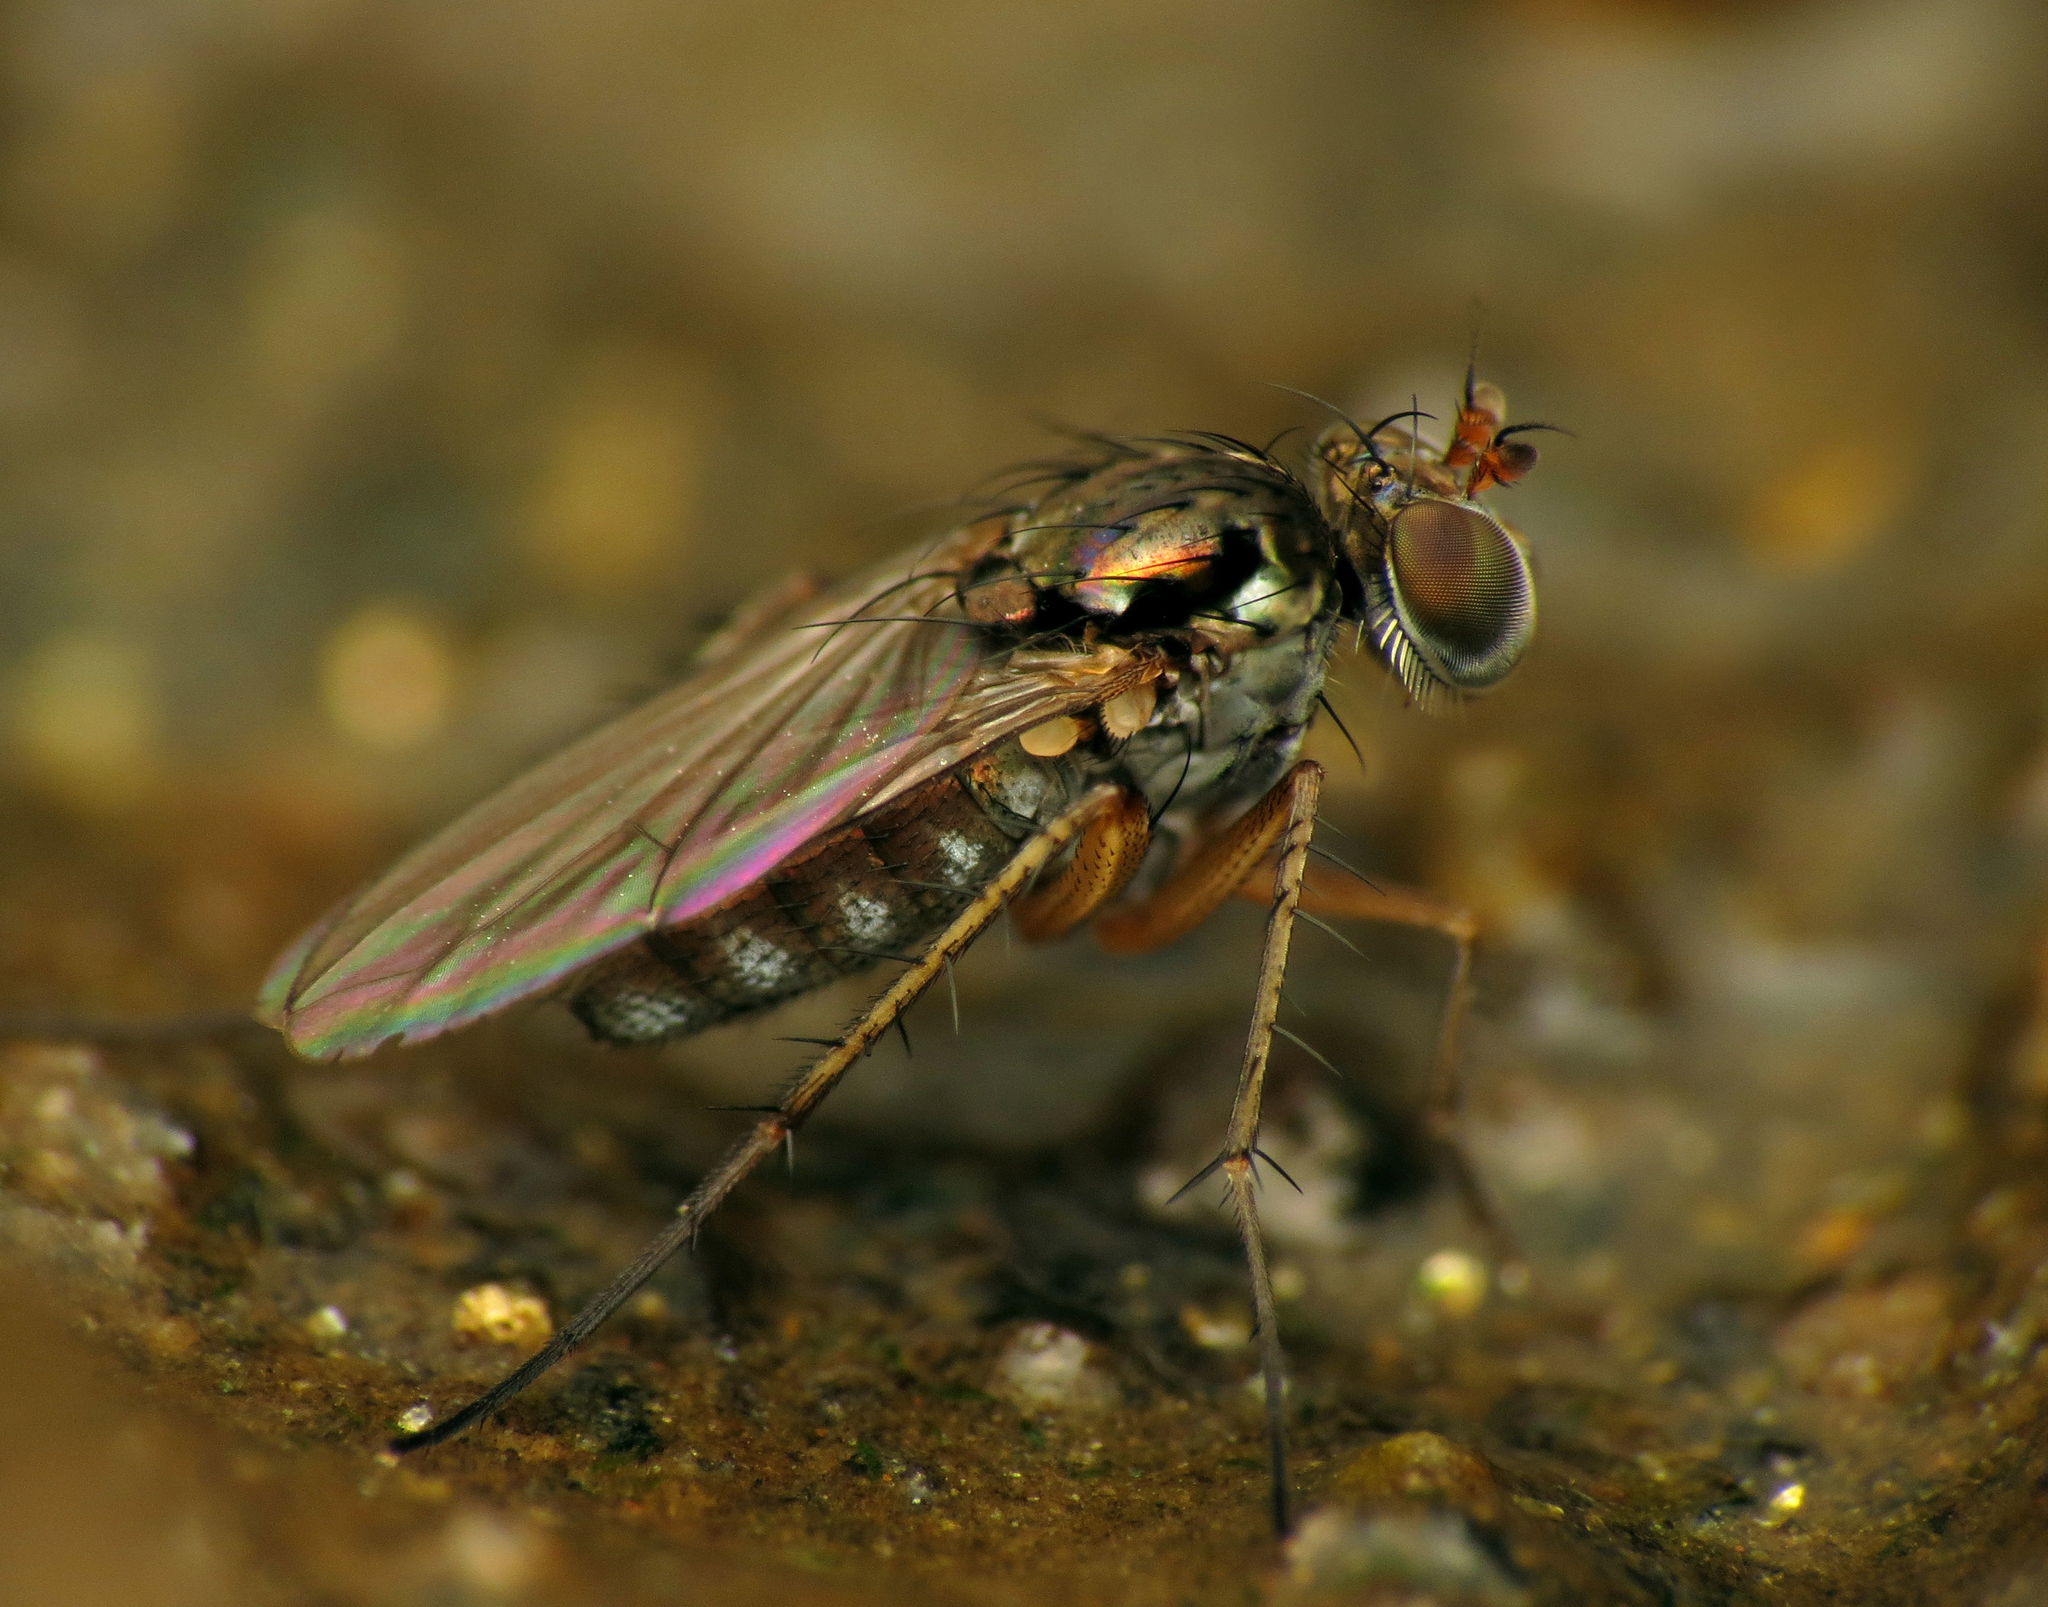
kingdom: Animalia
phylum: Arthropoda
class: Insecta
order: Diptera
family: Dolichopodidae
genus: Pelastoneurus
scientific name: Pelastoneurus vagans
